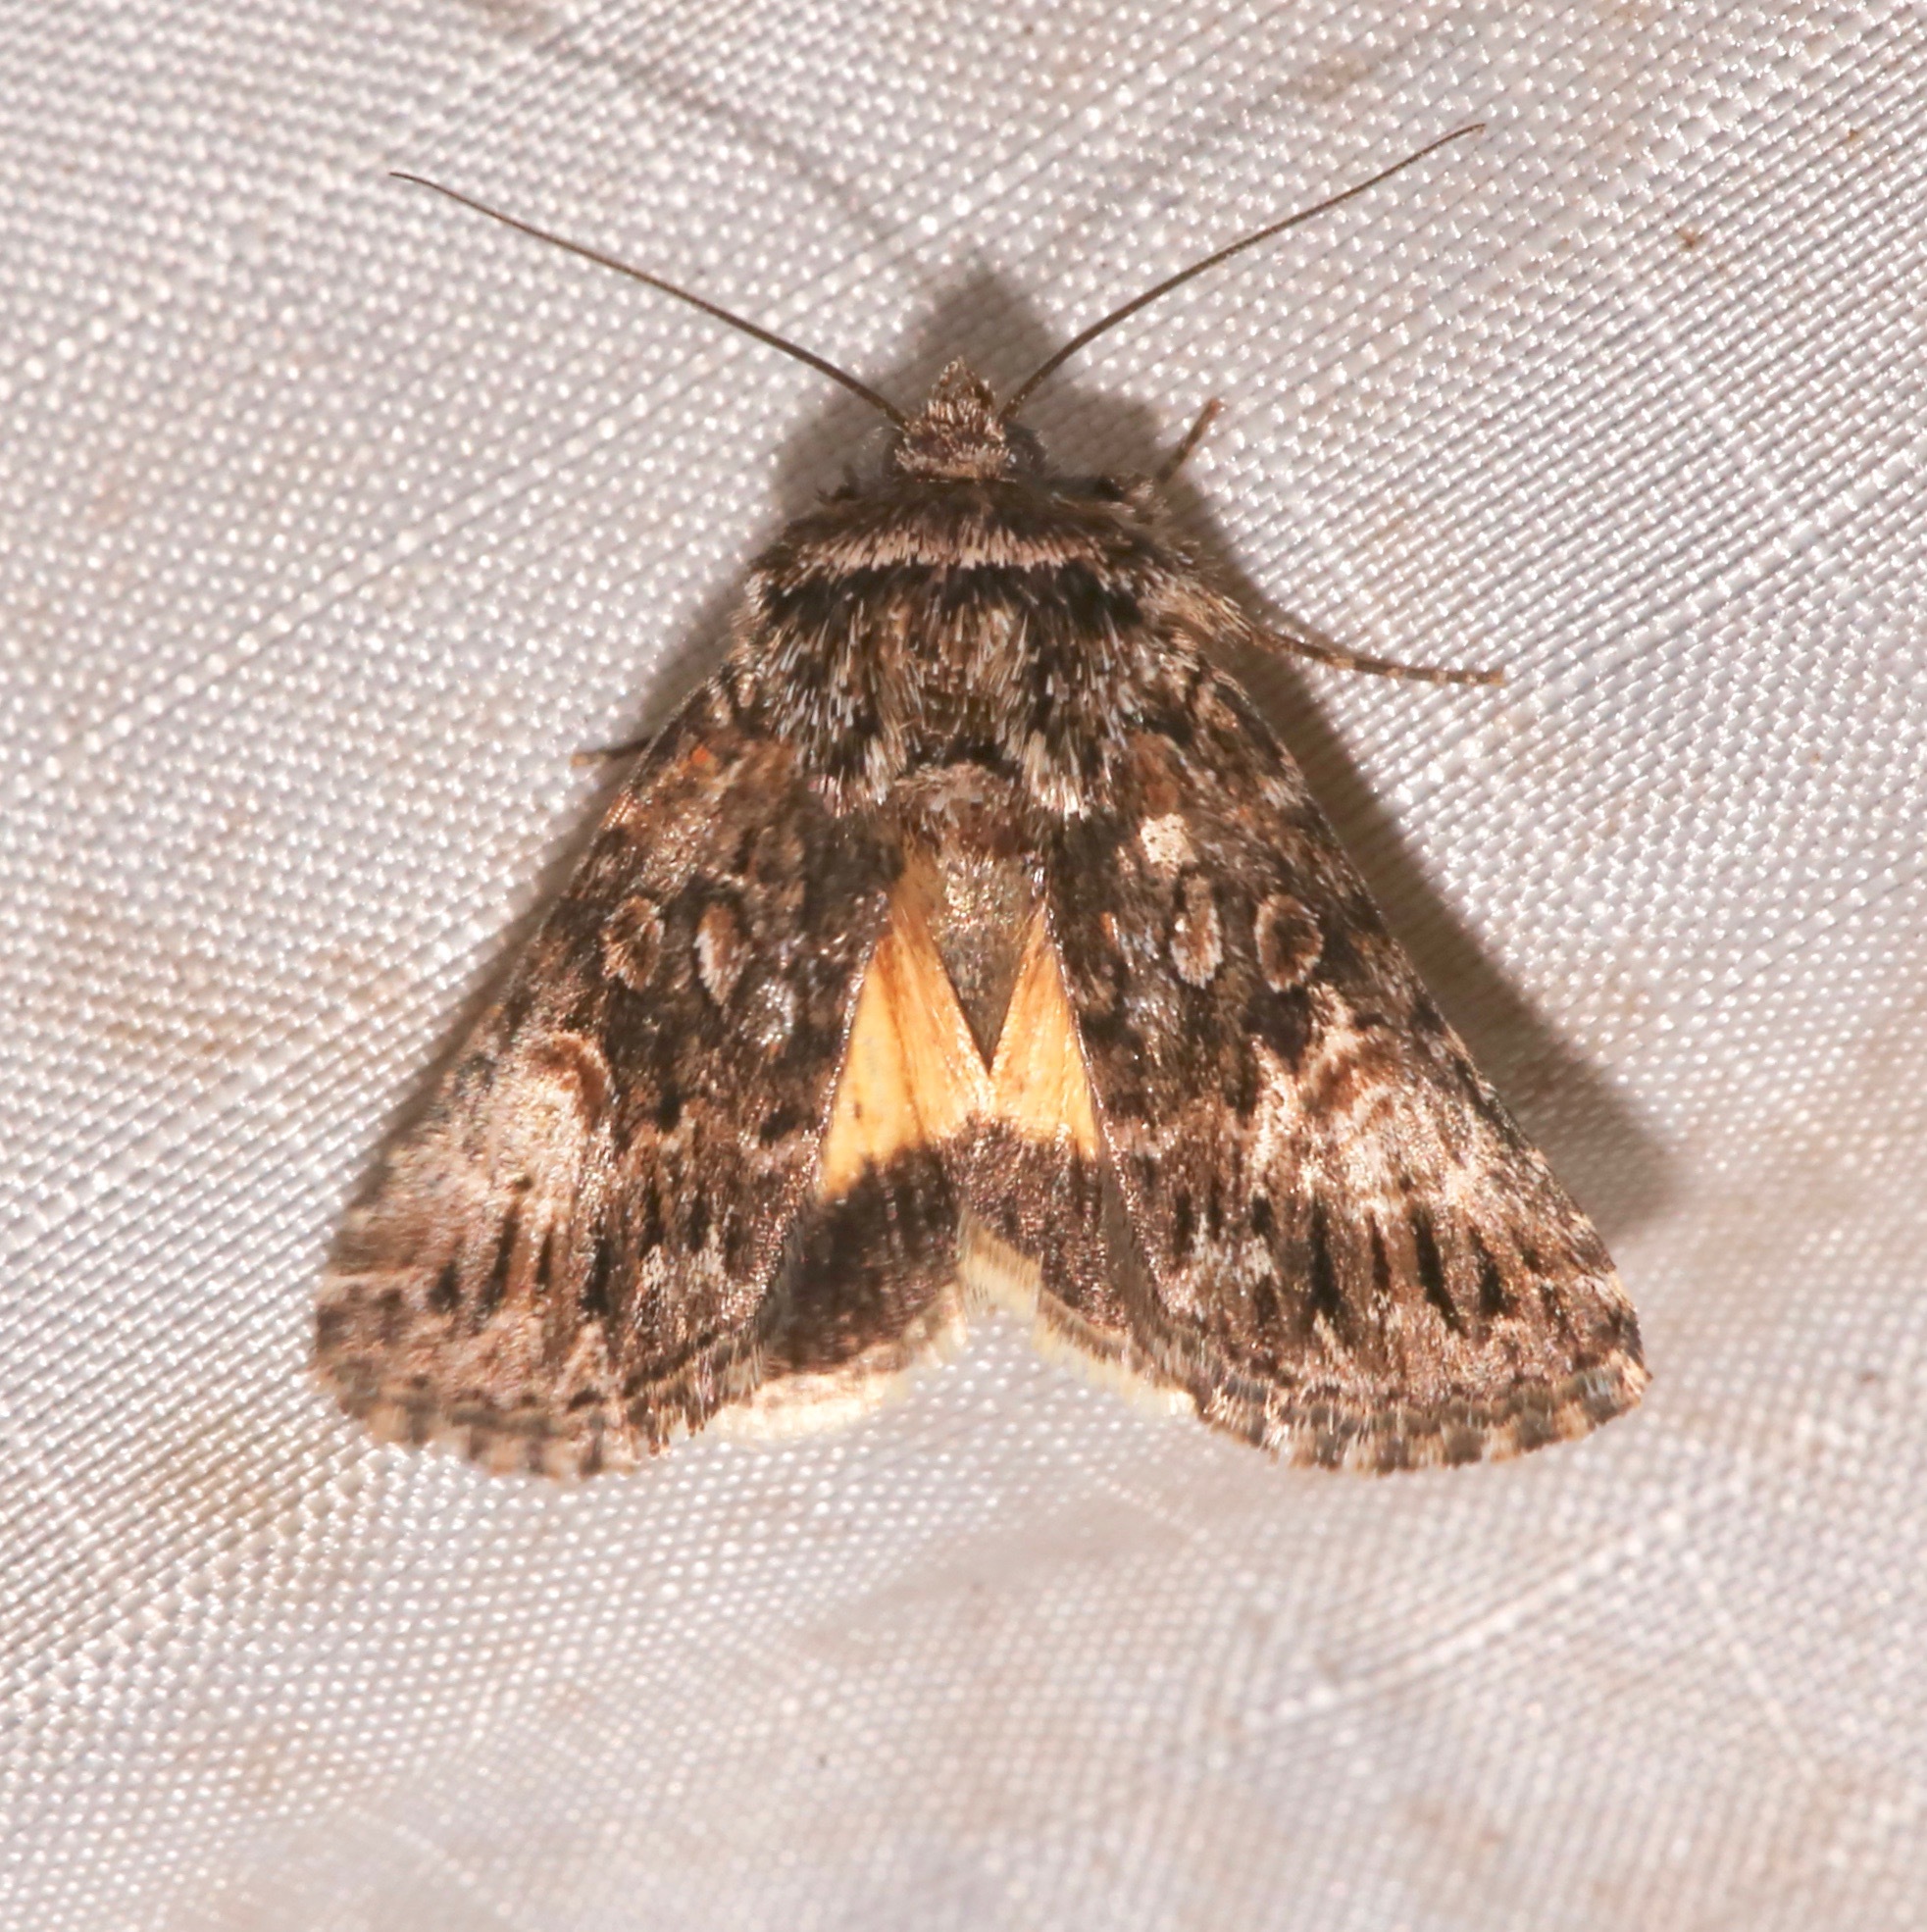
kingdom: Animalia
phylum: Arthropoda
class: Insecta
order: Lepidoptera
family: Noctuidae
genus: Sympistis
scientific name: Sympistis dayi
